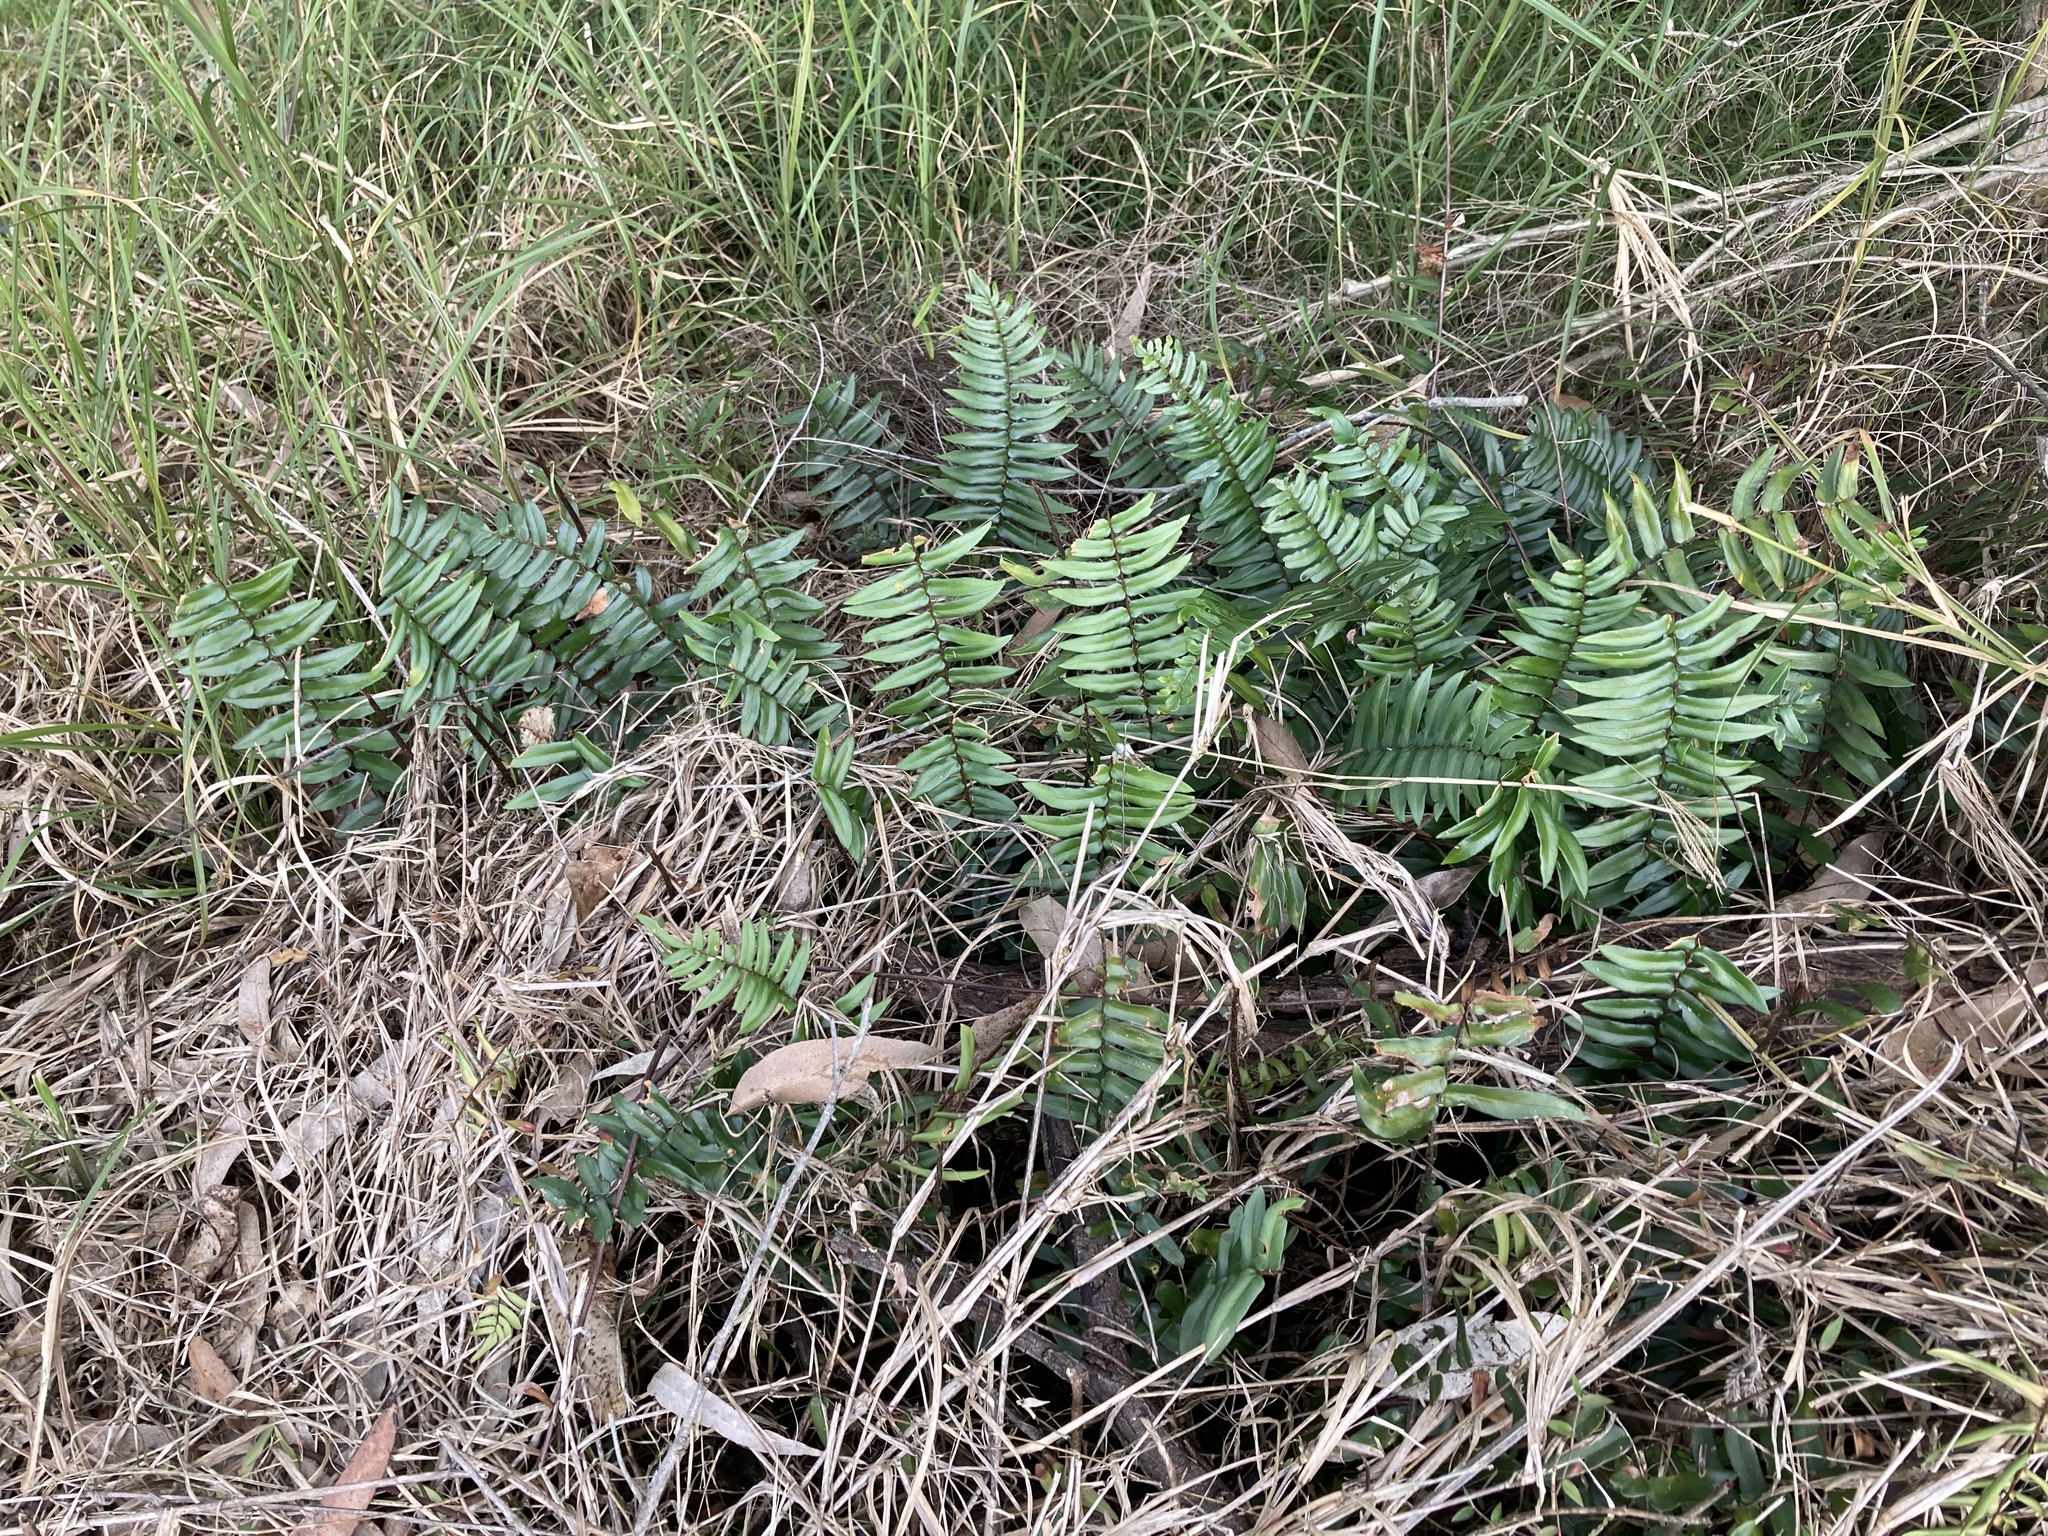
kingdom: Plantae
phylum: Tracheophyta
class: Polypodiopsida
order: Polypodiales
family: Pteridaceae
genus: Pellaea
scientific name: Pellaea falcata
